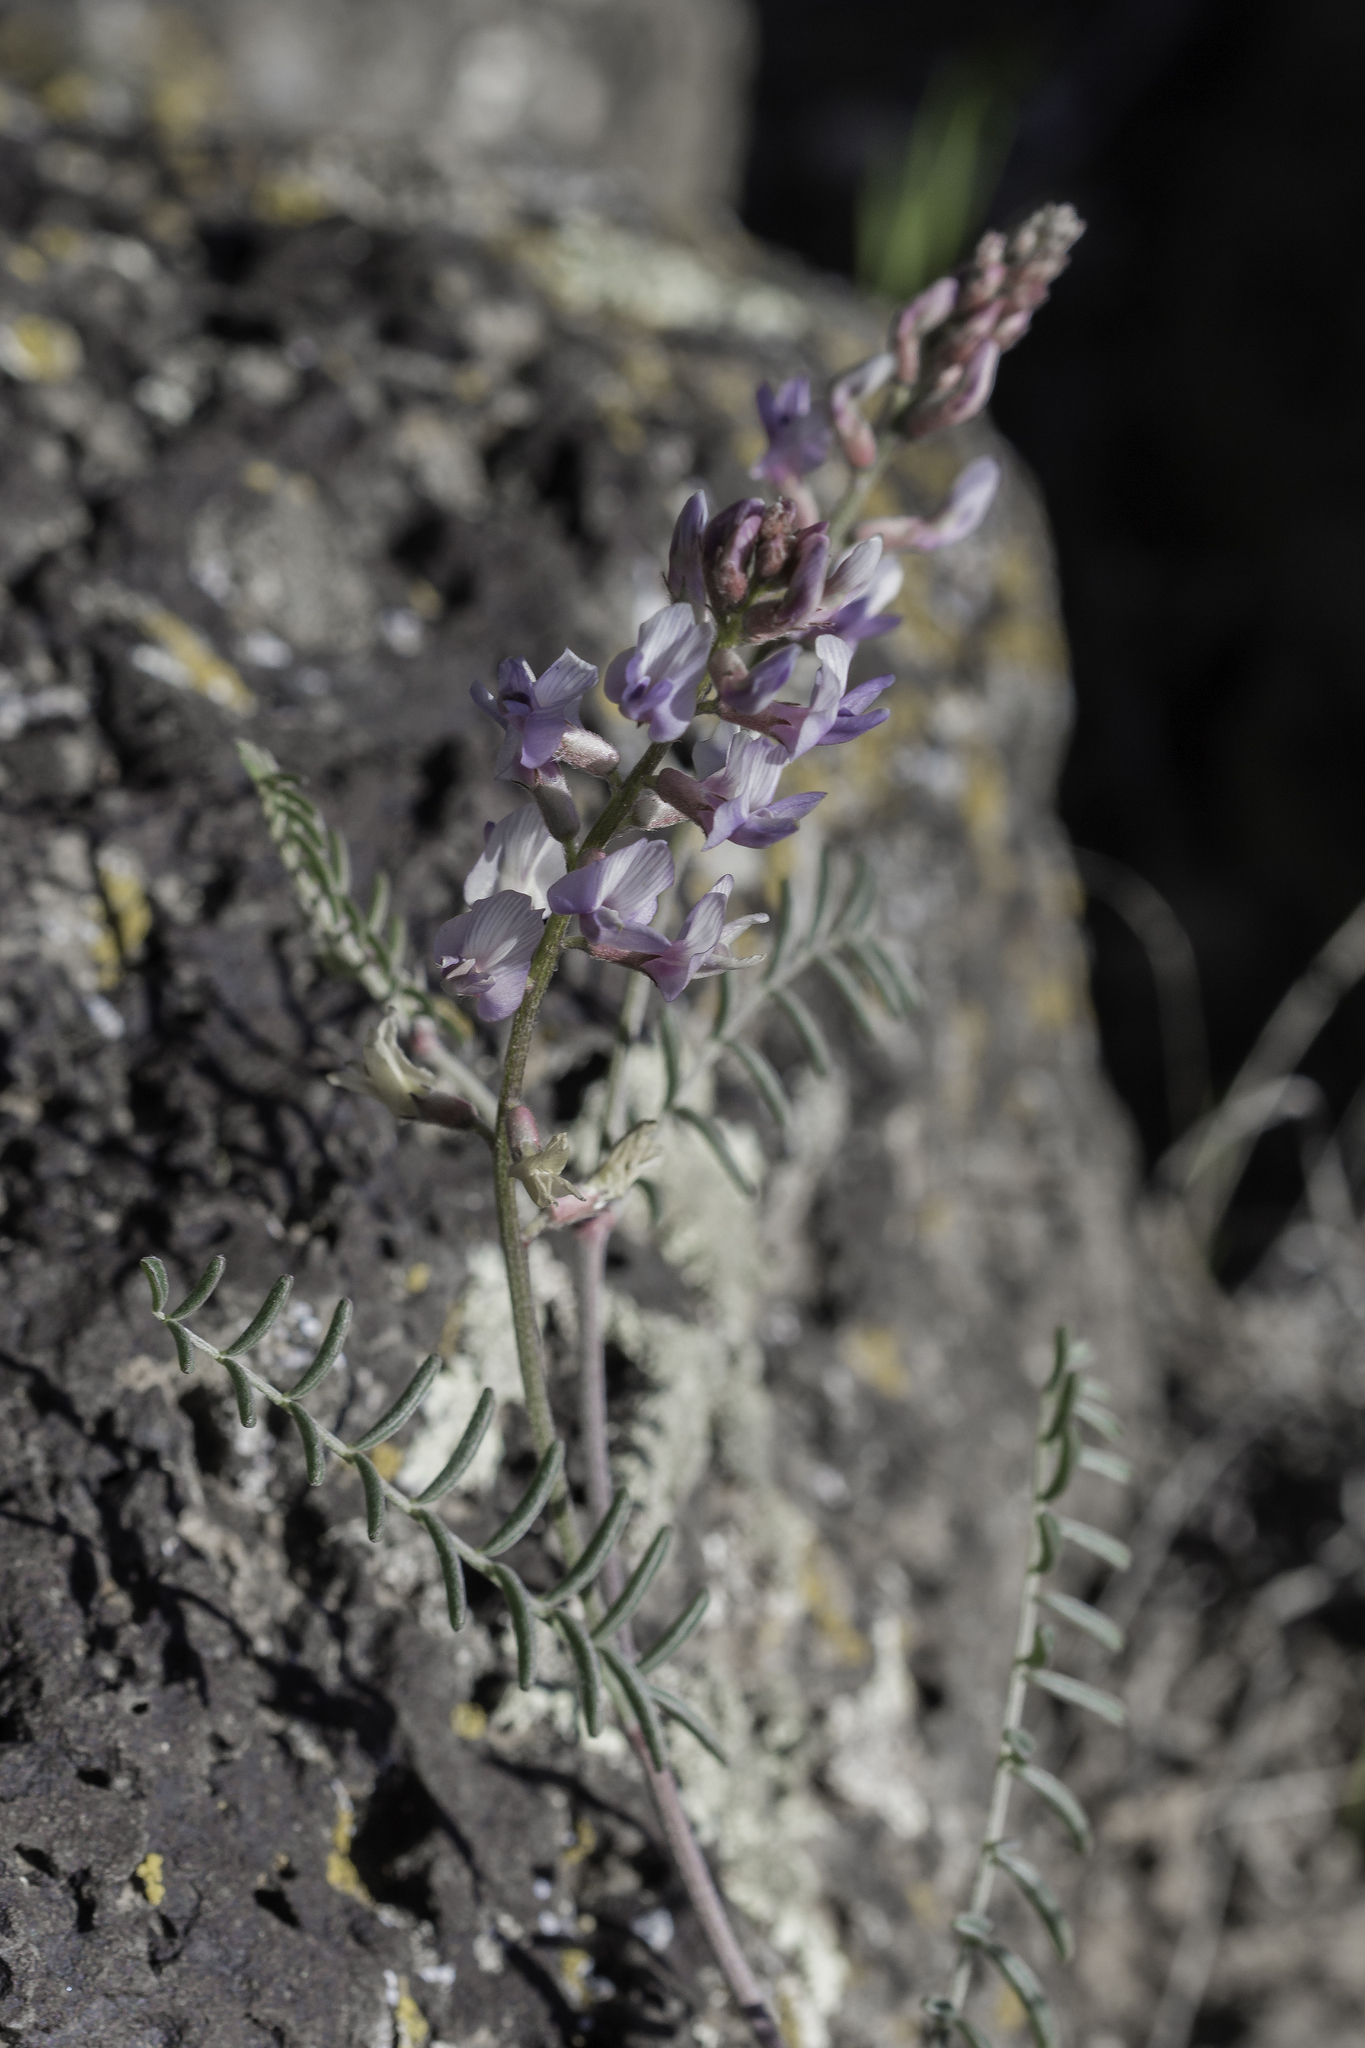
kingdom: Plantae
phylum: Tracheophyta
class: Magnoliopsida
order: Fabales
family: Fabaceae
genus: Astragalus
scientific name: Astragalus flexuosus
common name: Pliant milk-vetch
